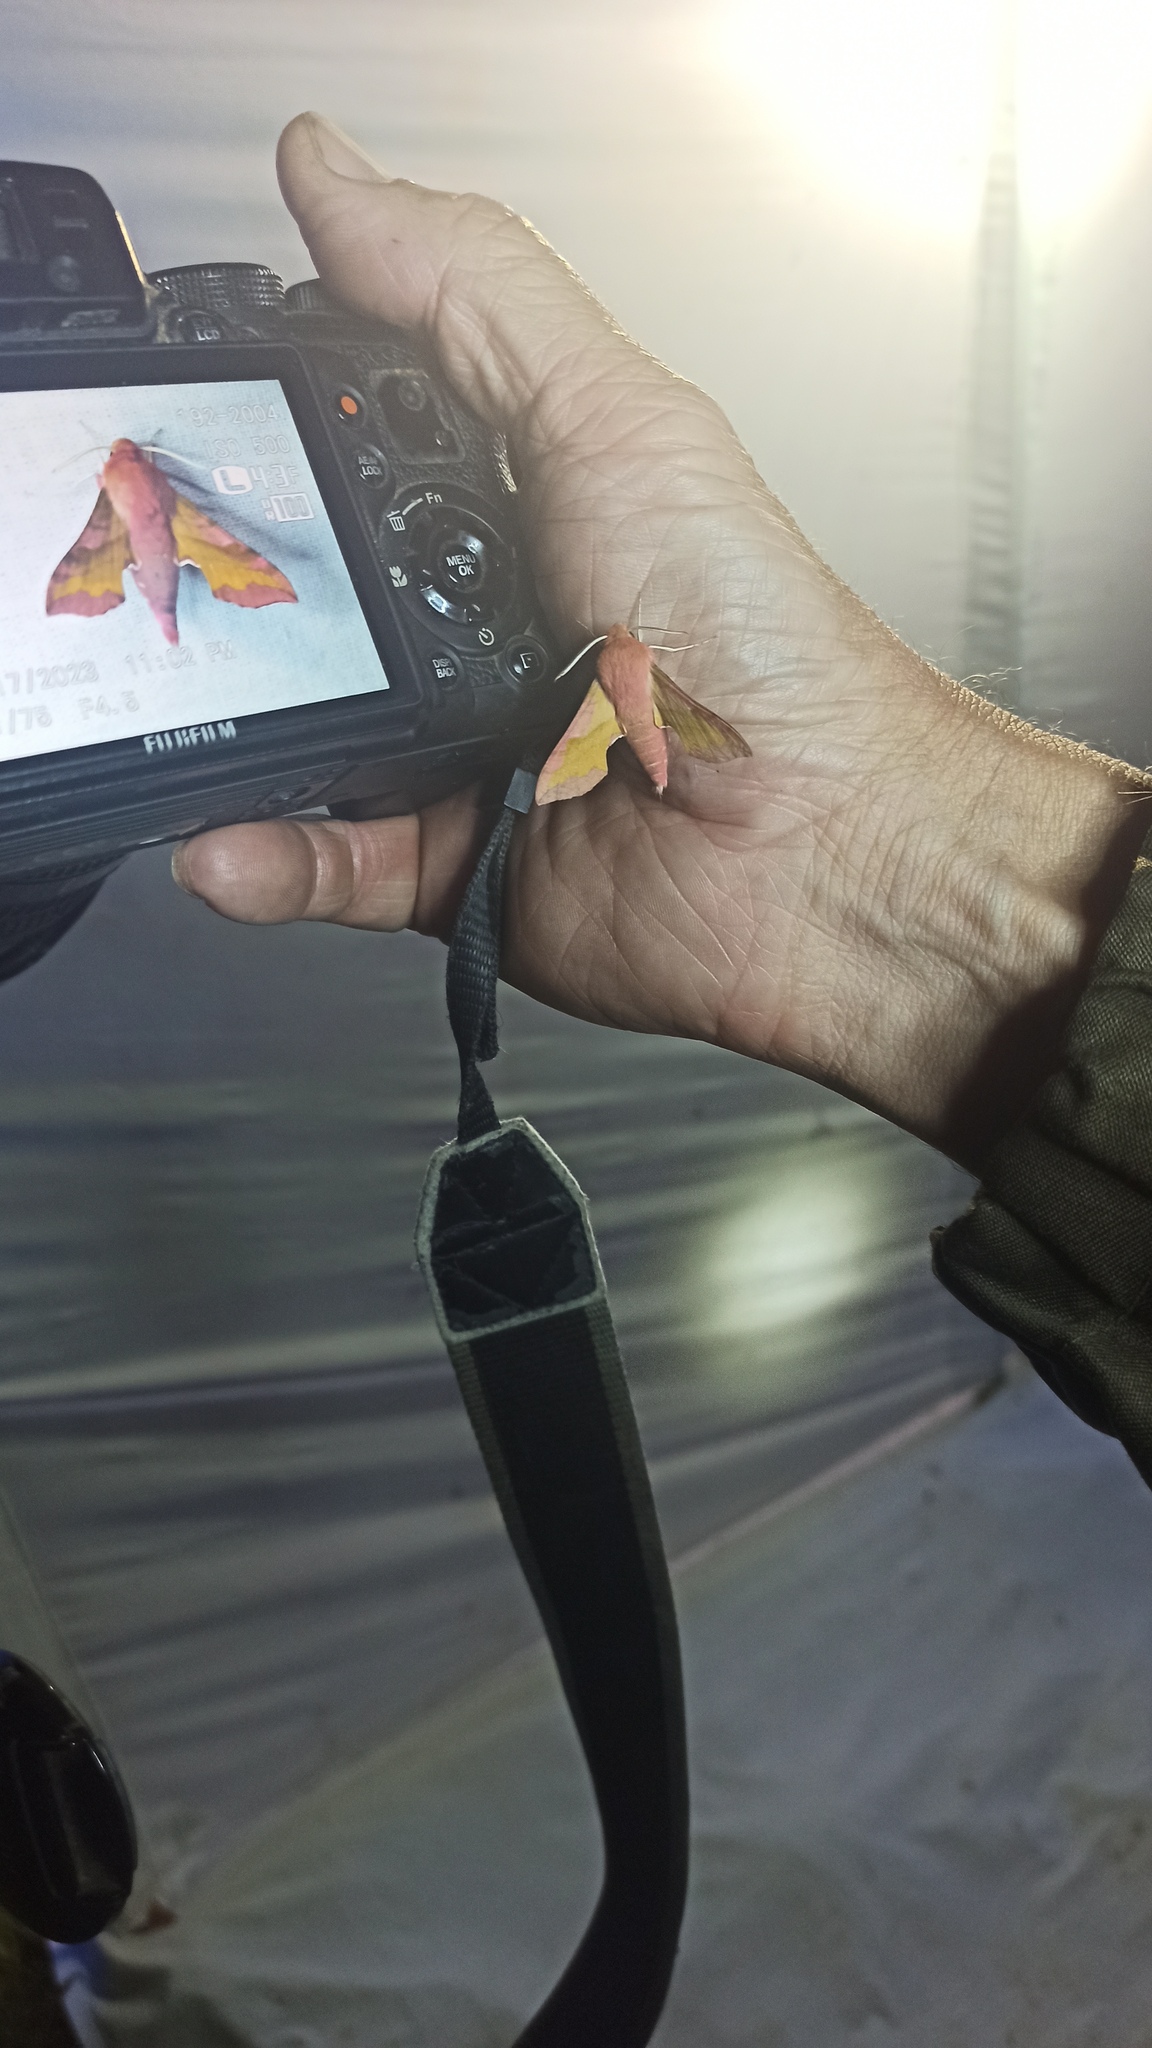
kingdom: Animalia
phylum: Arthropoda
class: Insecta
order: Lepidoptera
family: Sphingidae
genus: Deilephila
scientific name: Deilephila porcellus
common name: Small elephant hawk-moth
